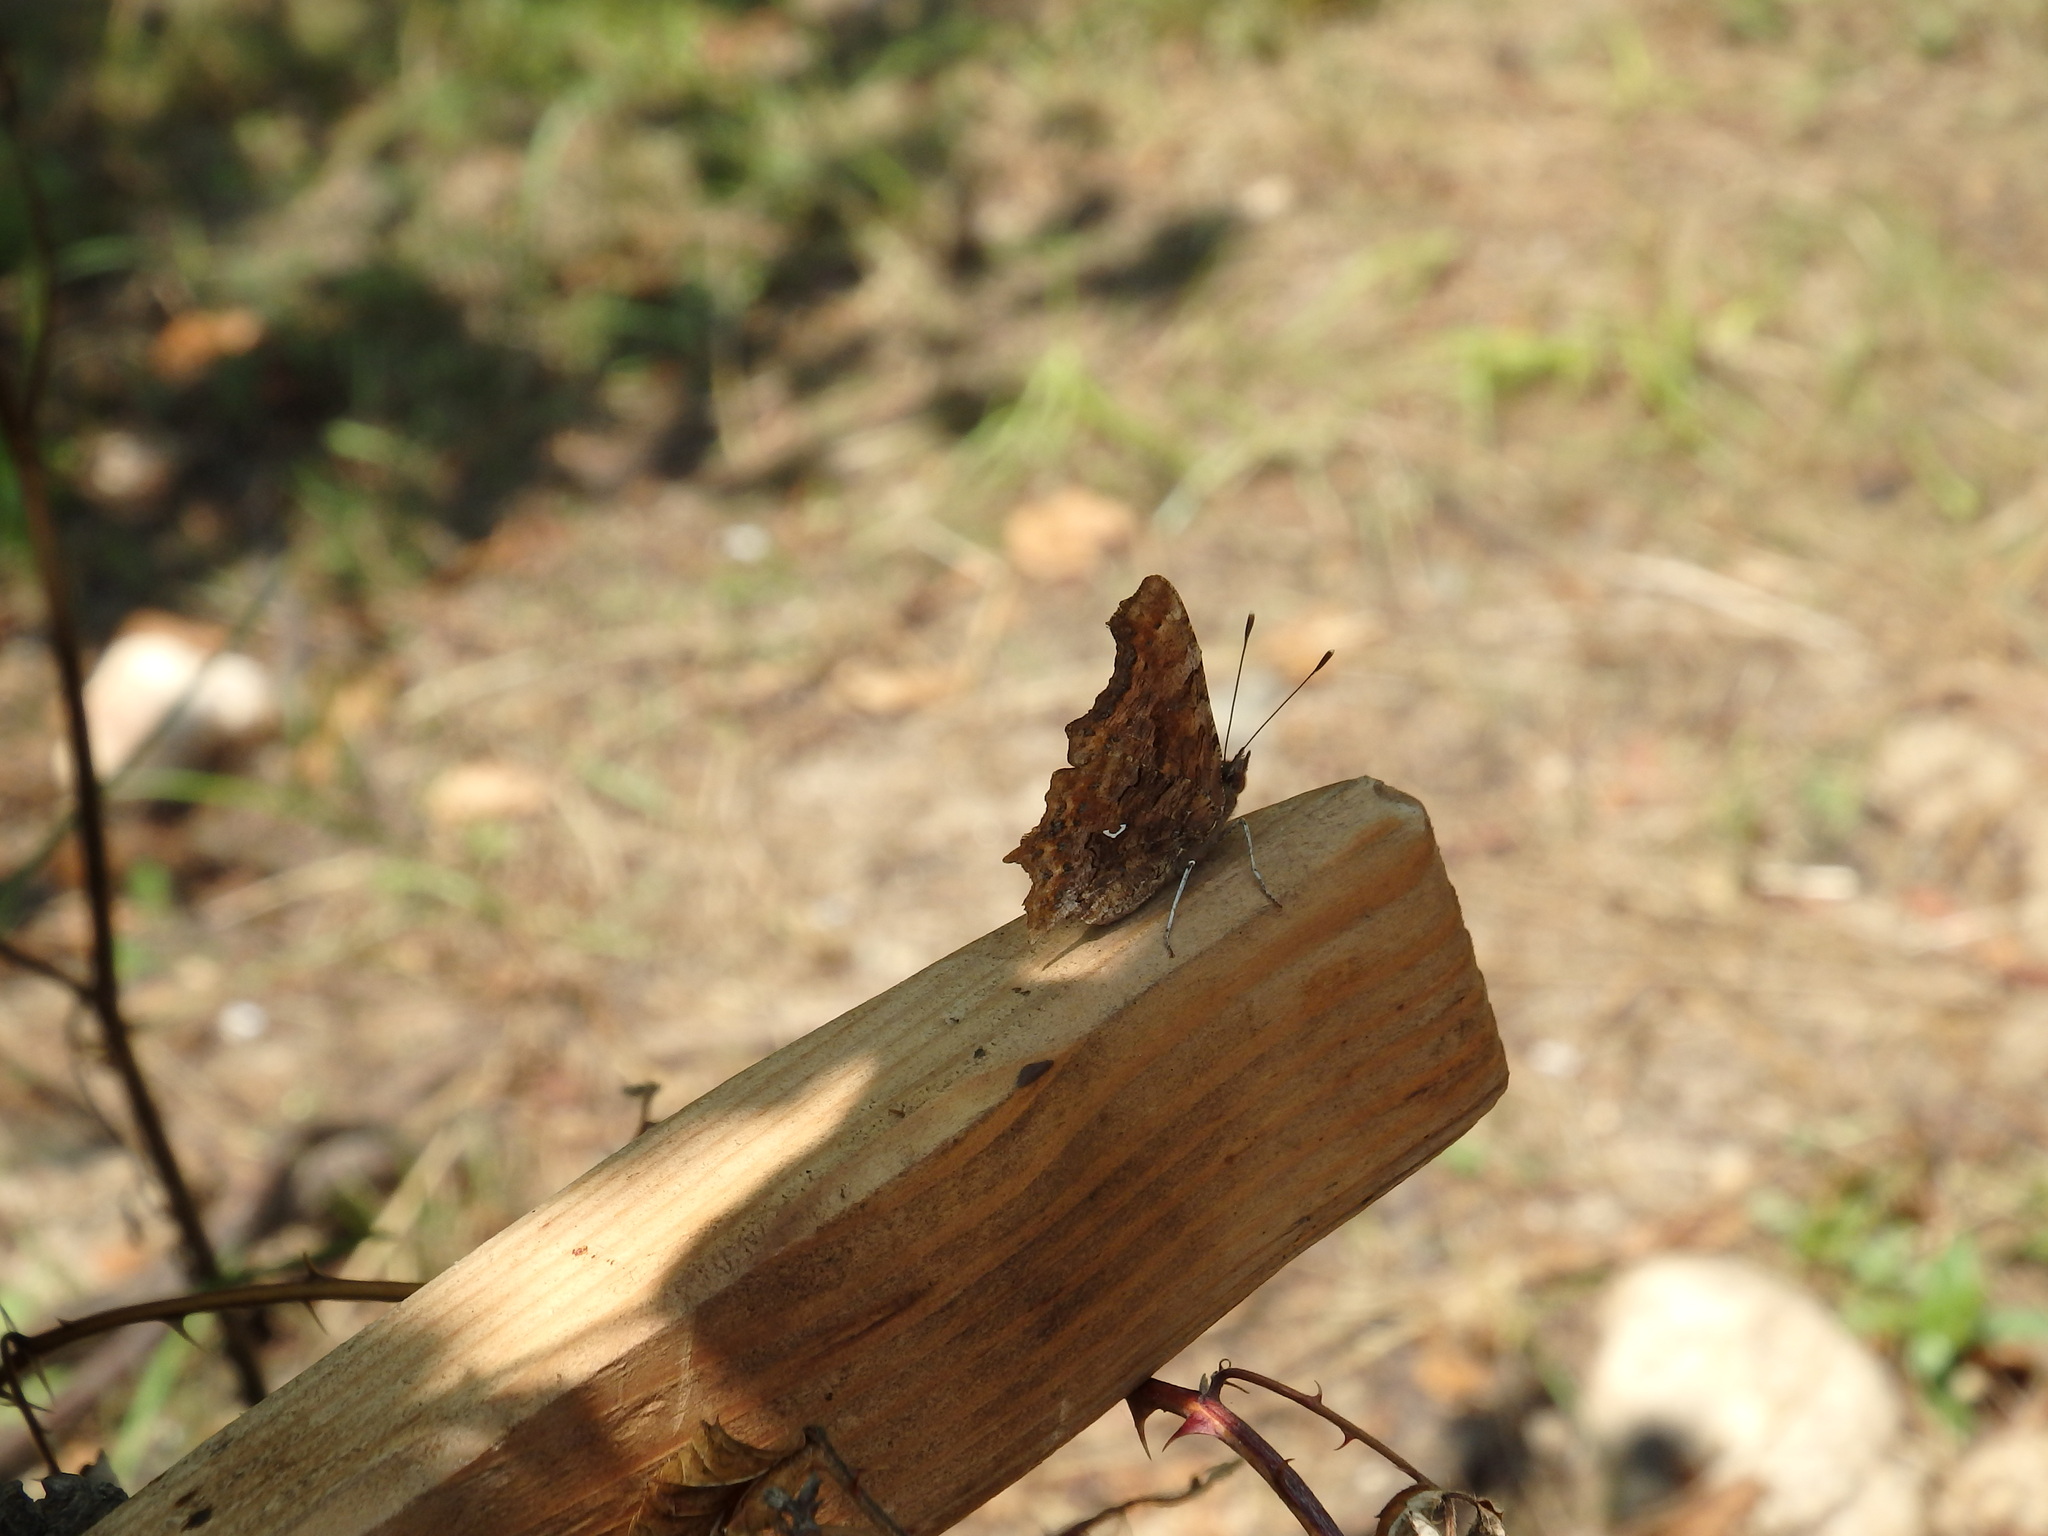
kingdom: Animalia
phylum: Arthropoda
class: Insecta
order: Lepidoptera
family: Nymphalidae
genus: Polygonia
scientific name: Polygonia c-album
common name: Comma
